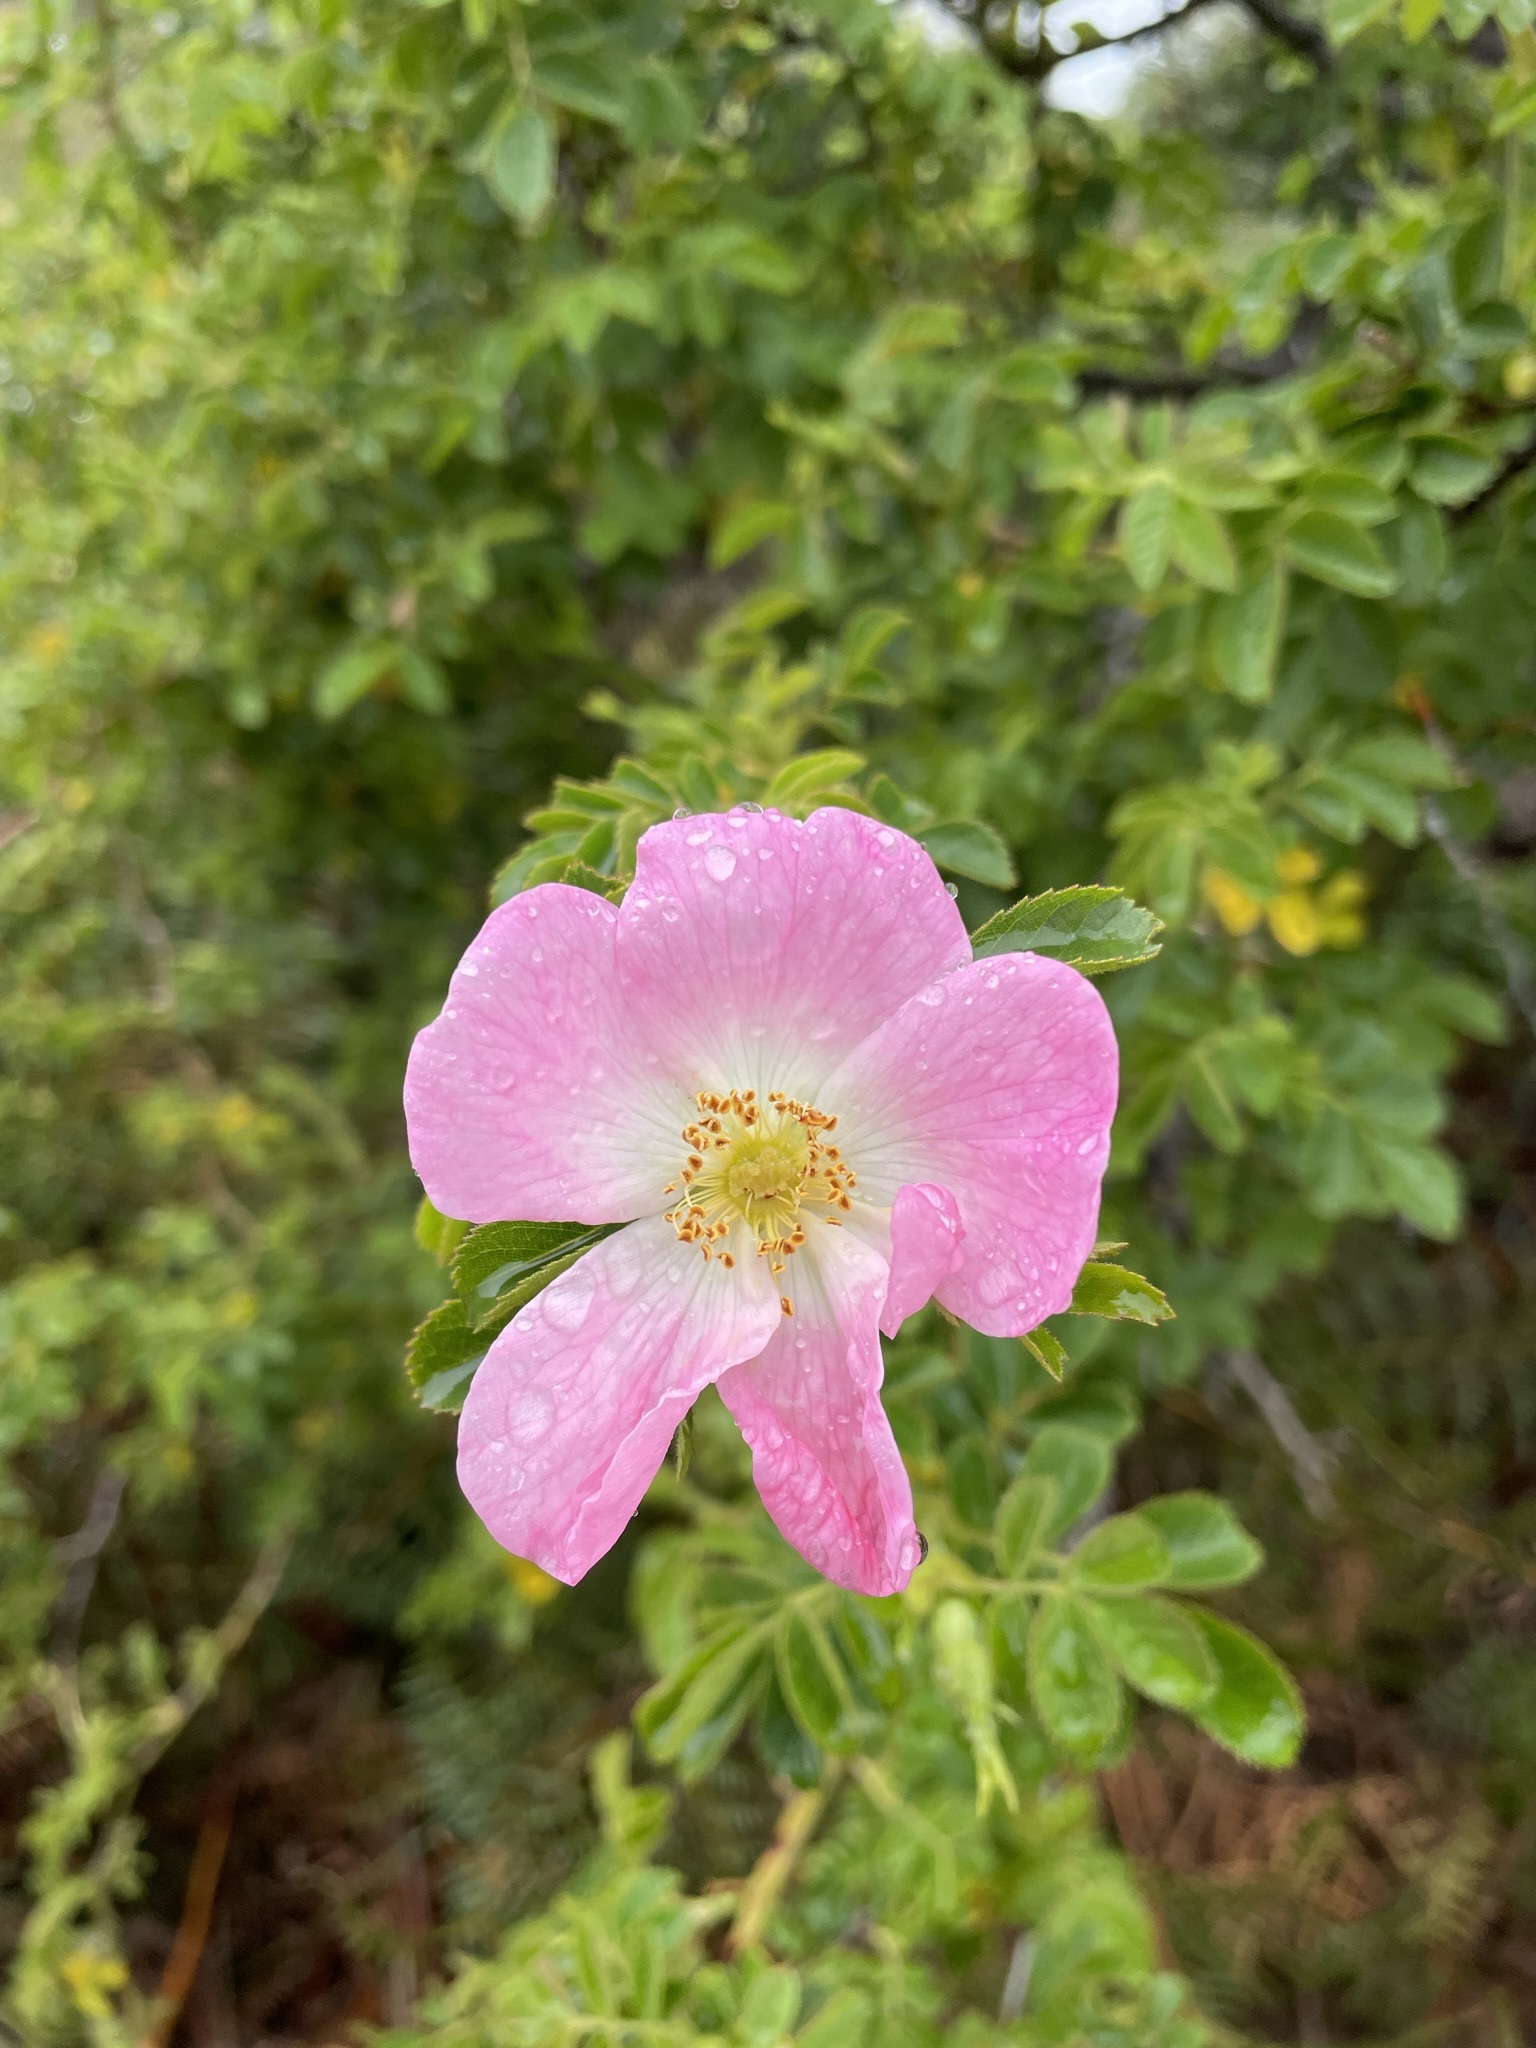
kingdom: Plantae
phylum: Tracheophyta
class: Magnoliopsida
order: Rosales
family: Rosaceae
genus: Rosa
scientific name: Rosa rubiginosa
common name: Sweet-briar
